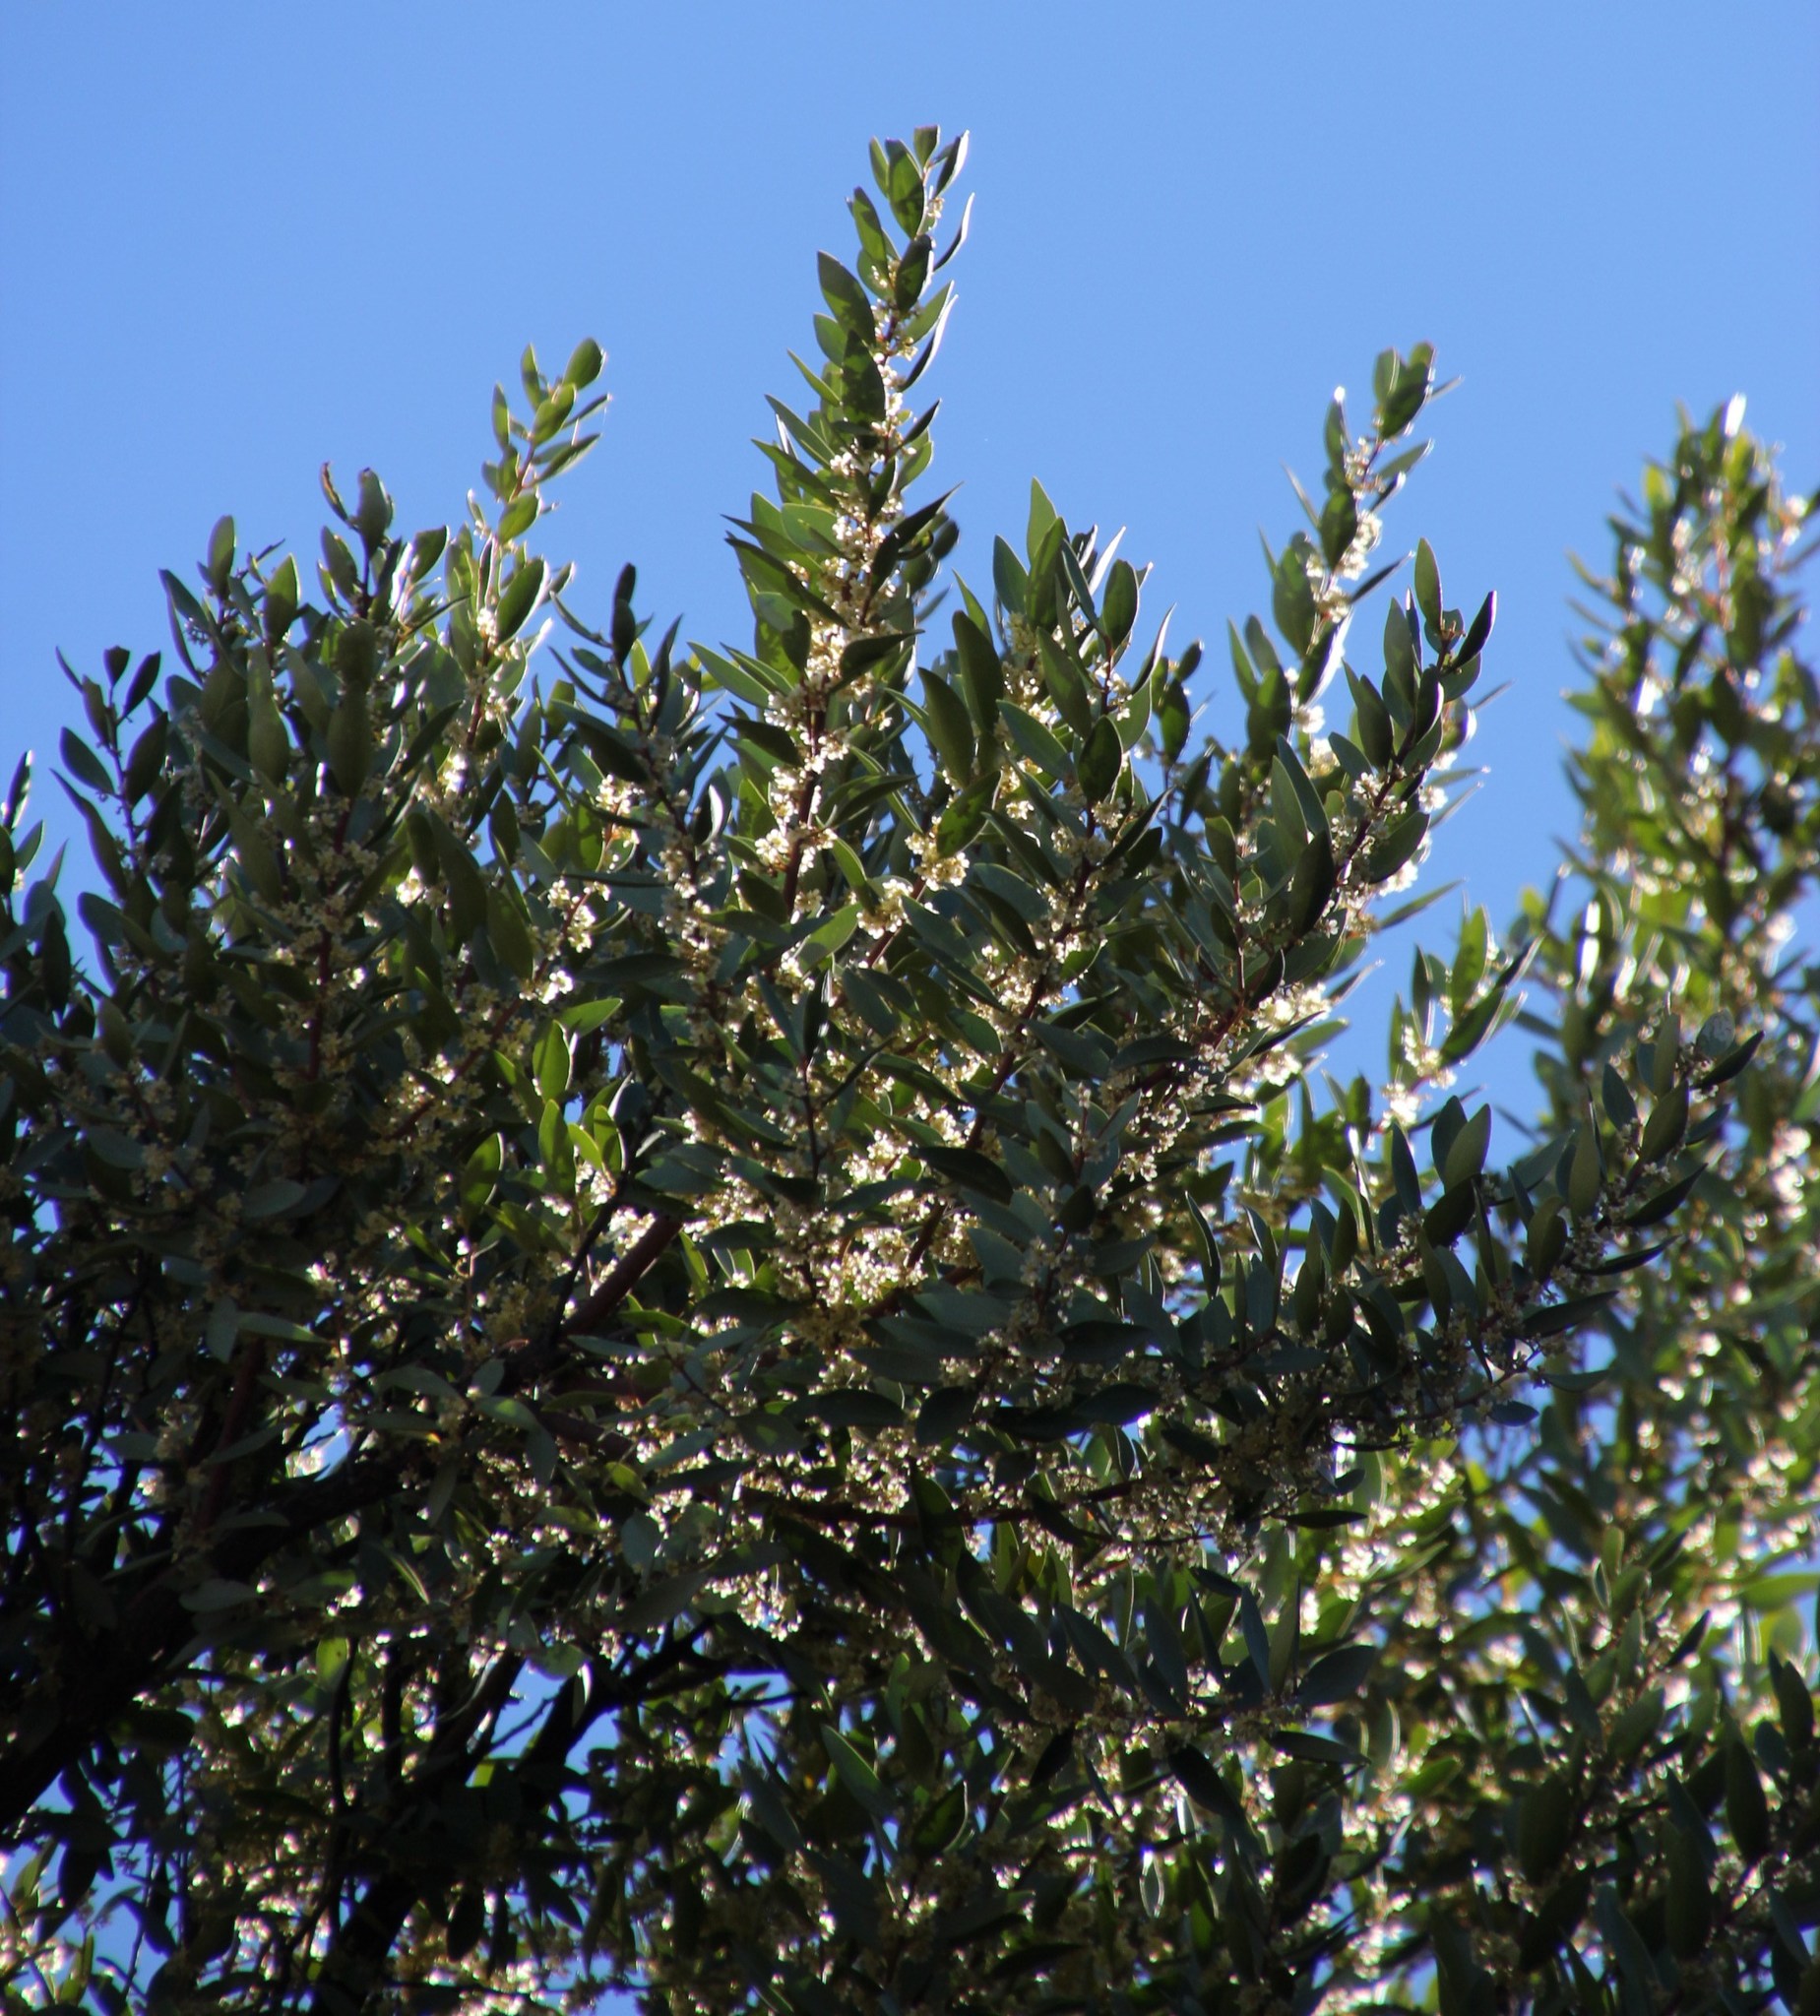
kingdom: Plantae
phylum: Tracheophyta
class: Magnoliopsida
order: Celastrales
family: Celastraceae
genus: Gymnosporia
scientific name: Gymnosporia laurina
